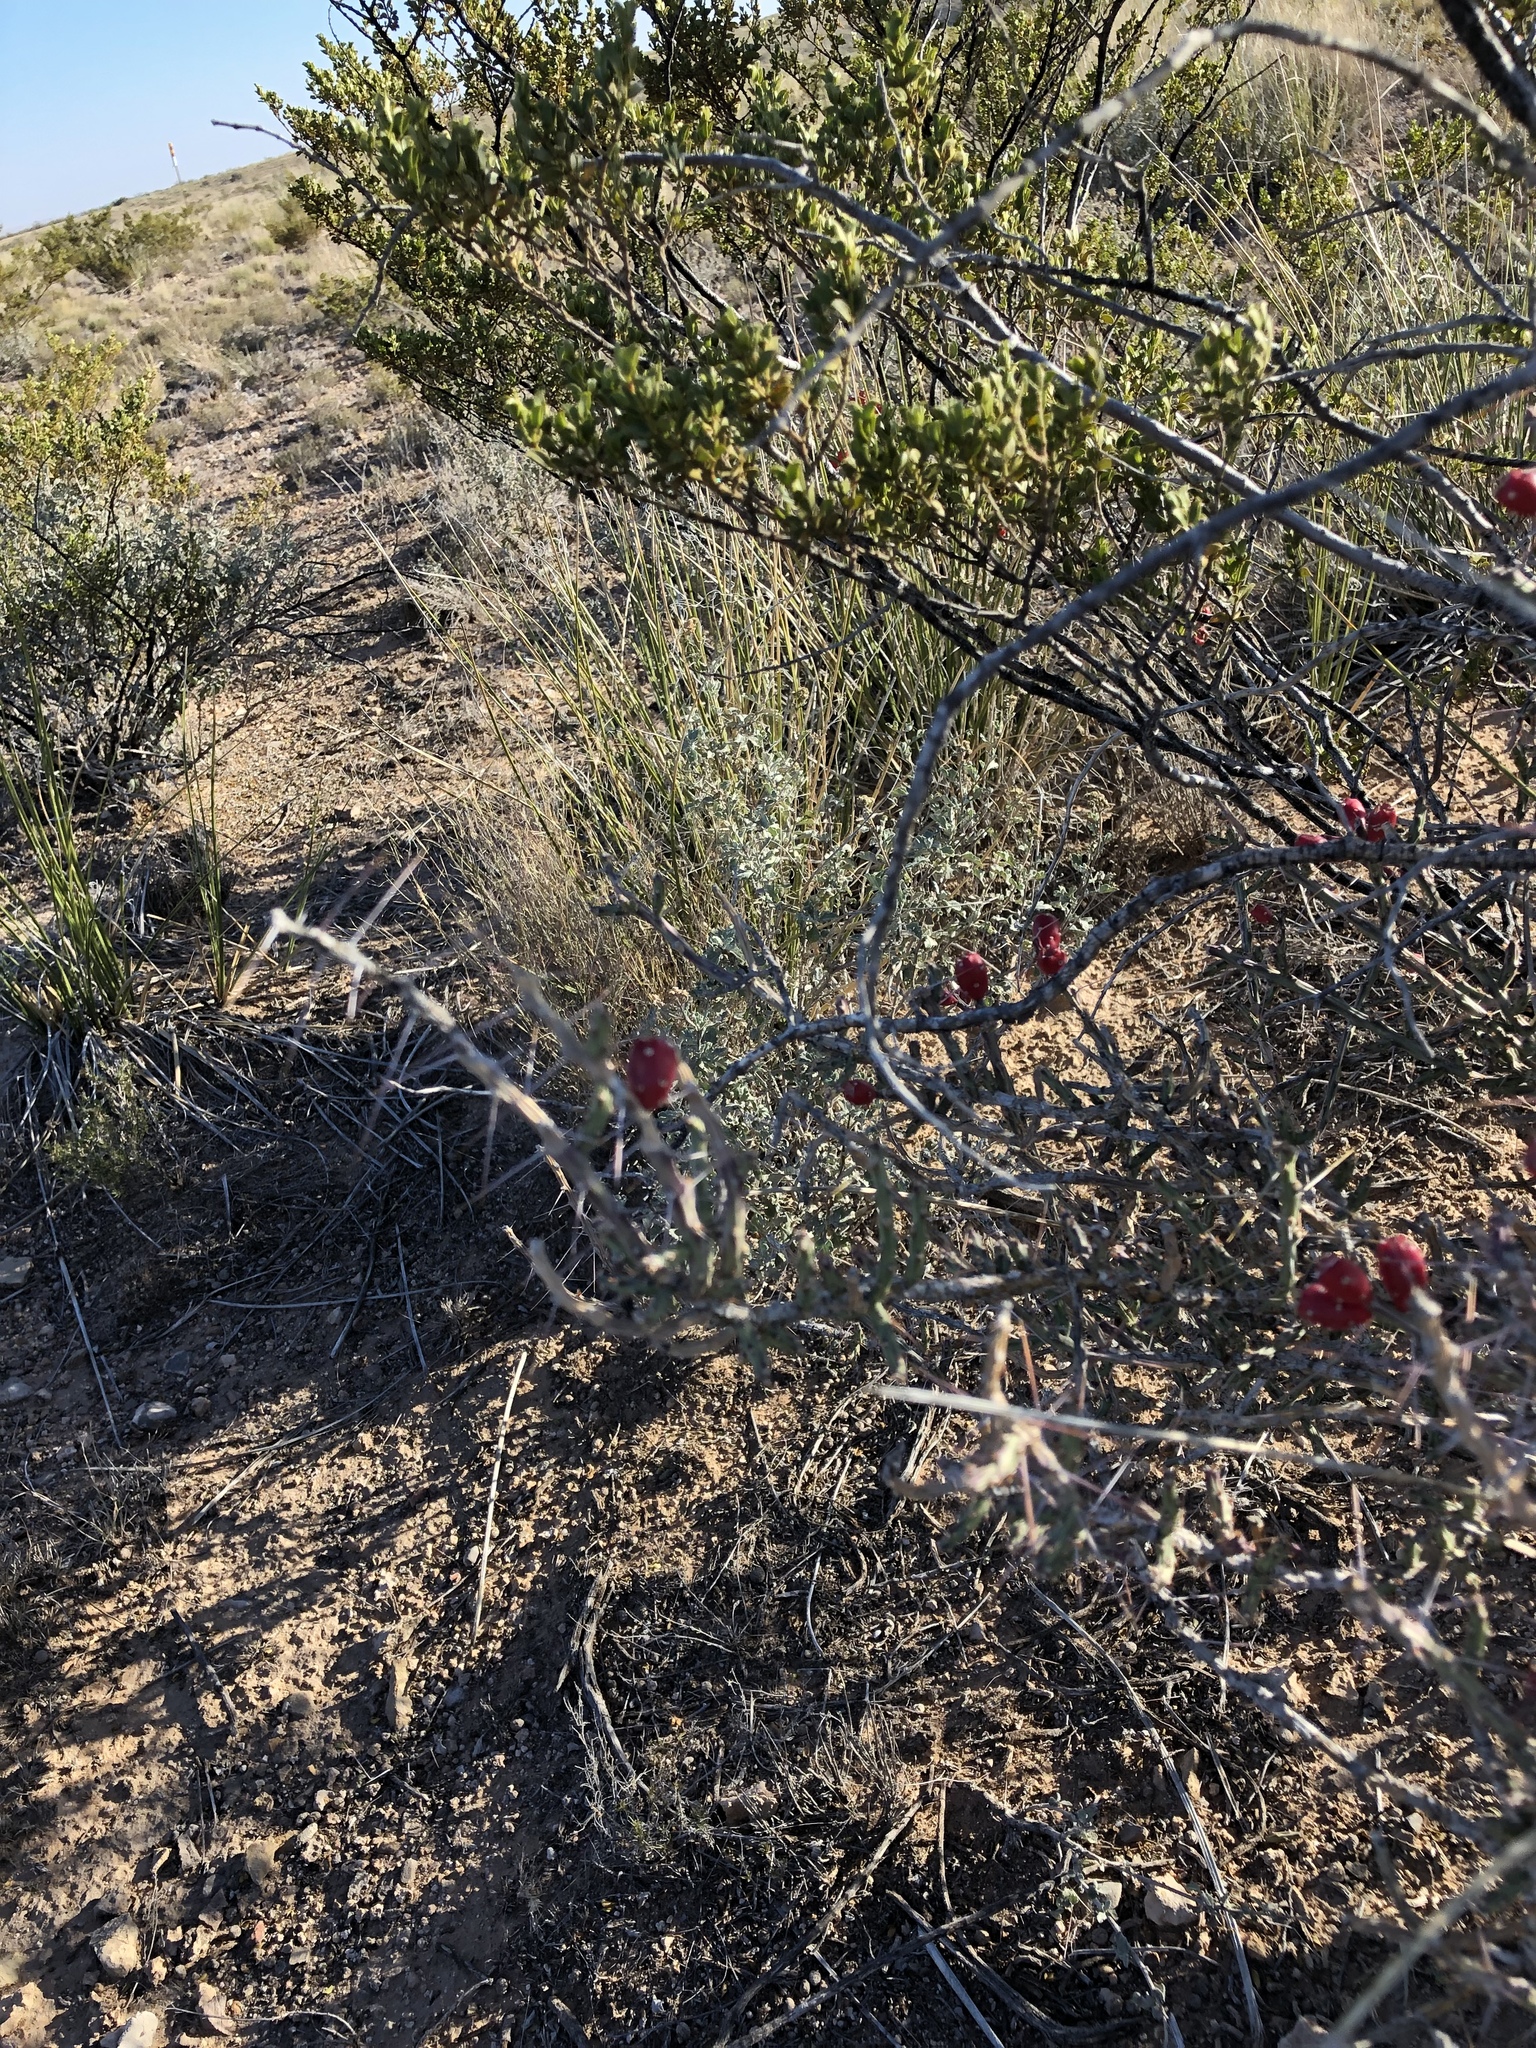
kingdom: Plantae
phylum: Tracheophyta
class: Magnoliopsida
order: Caryophyllales
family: Cactaceae
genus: Cylindropuntia
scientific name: Cylindropuntia leptocaulis
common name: Christmas cactus
